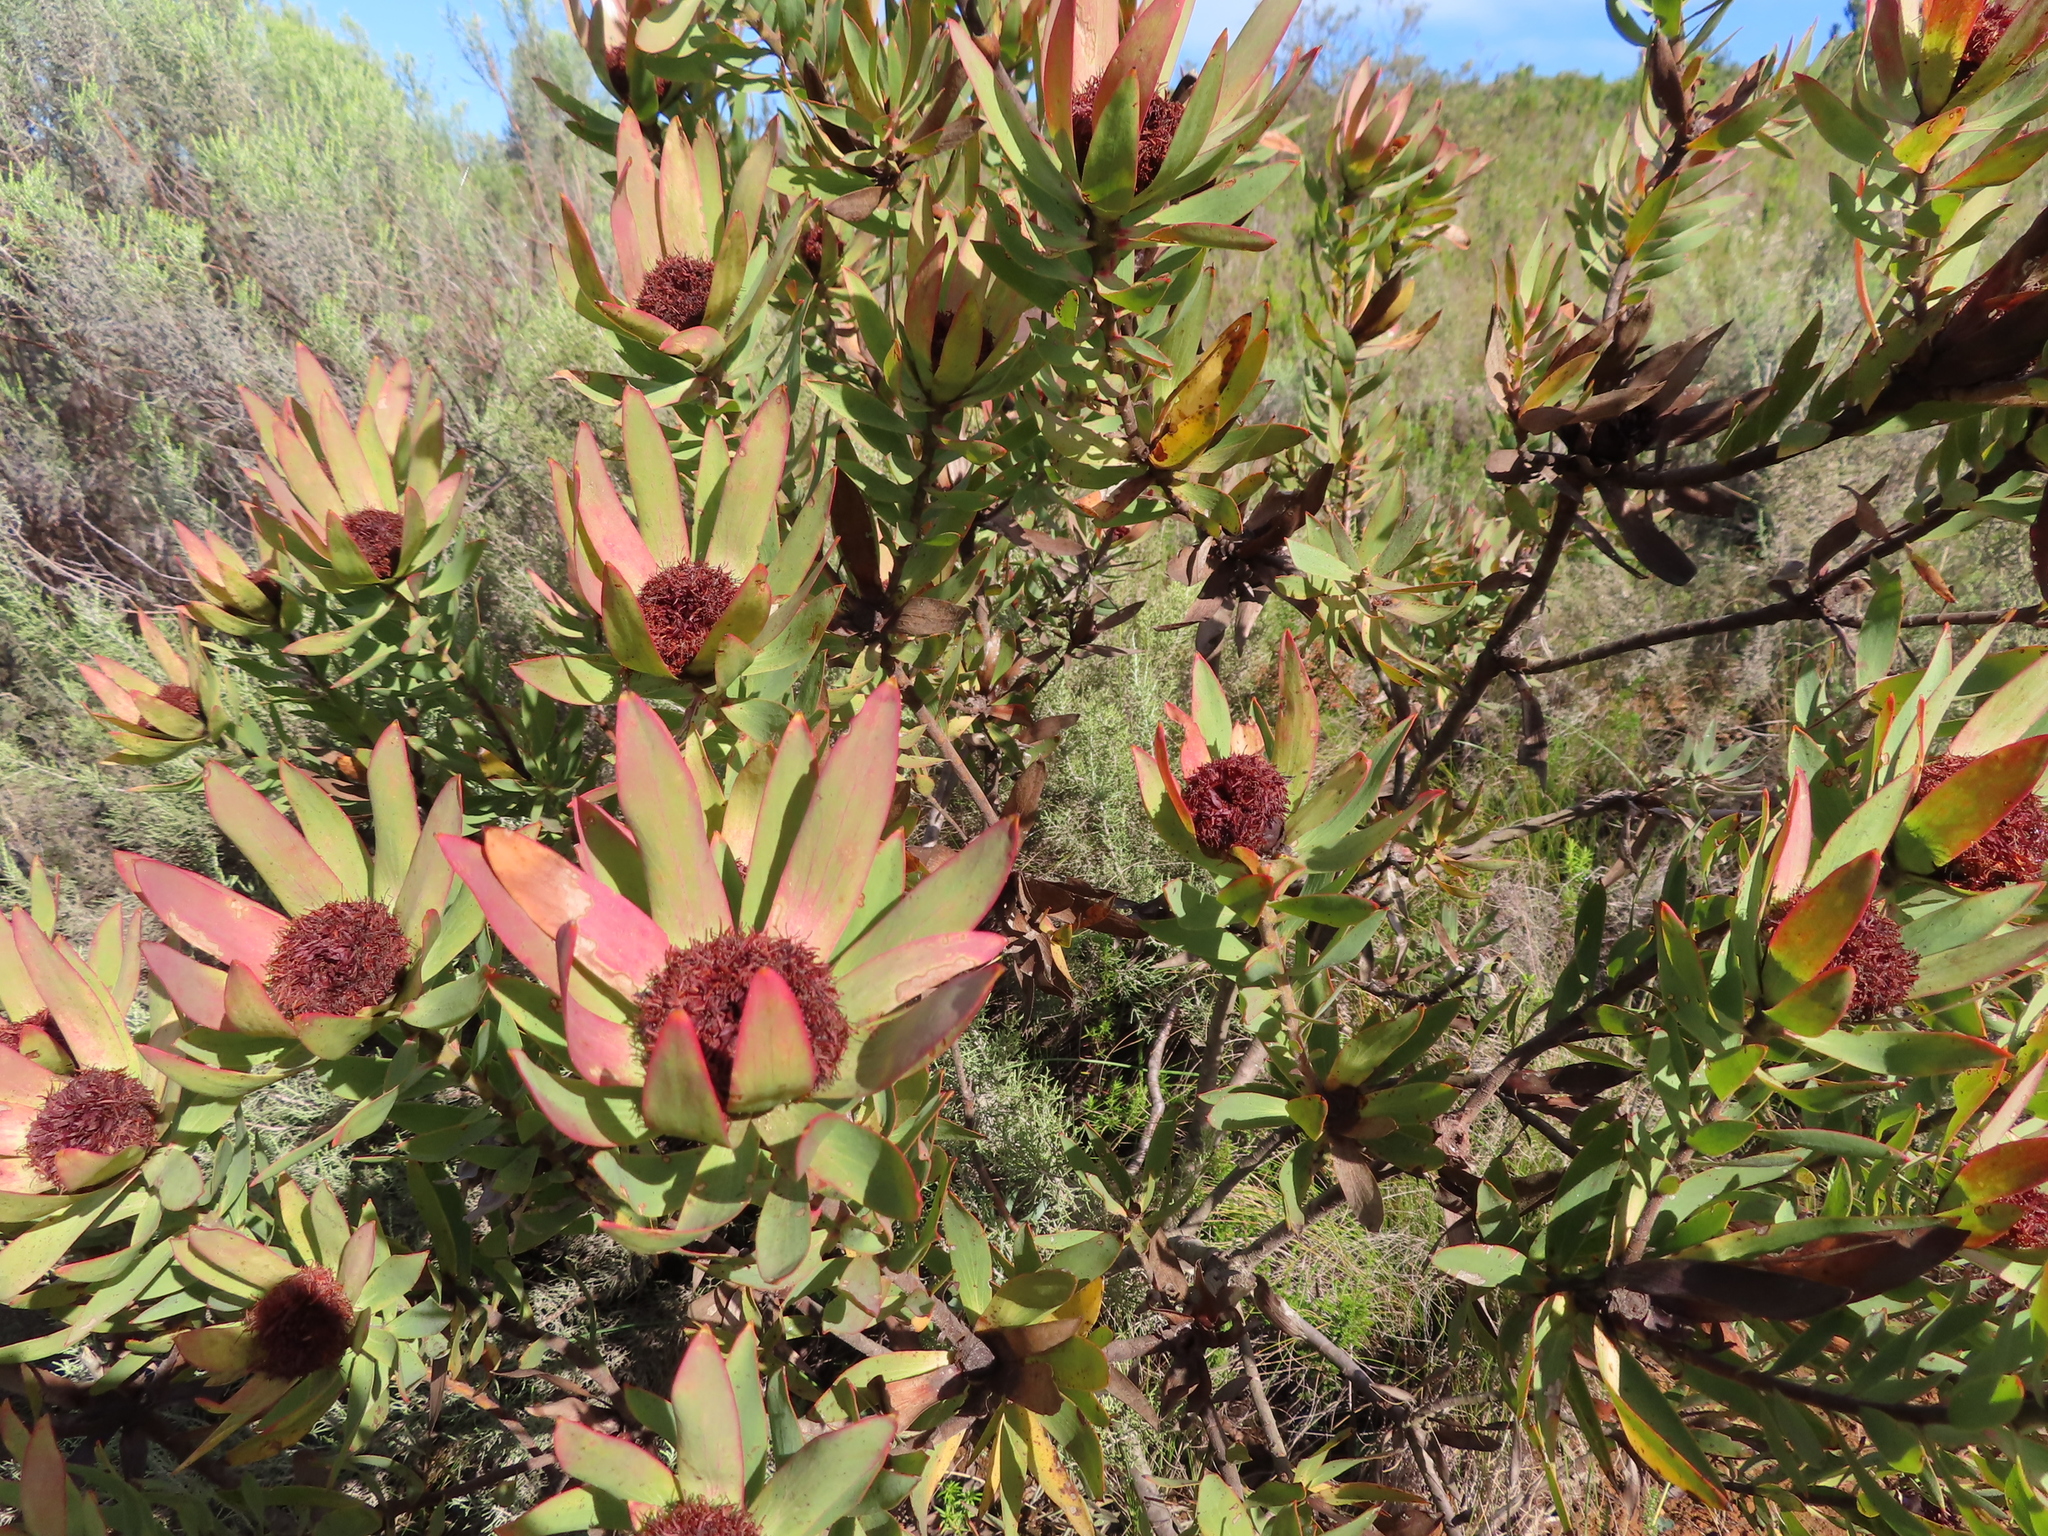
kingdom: Plantae
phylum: Tracheophyta
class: Magnoliopsida
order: Proteales
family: Proteaceae
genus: Leucadendron
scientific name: Leucadendron sessile
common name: Western sunbush
